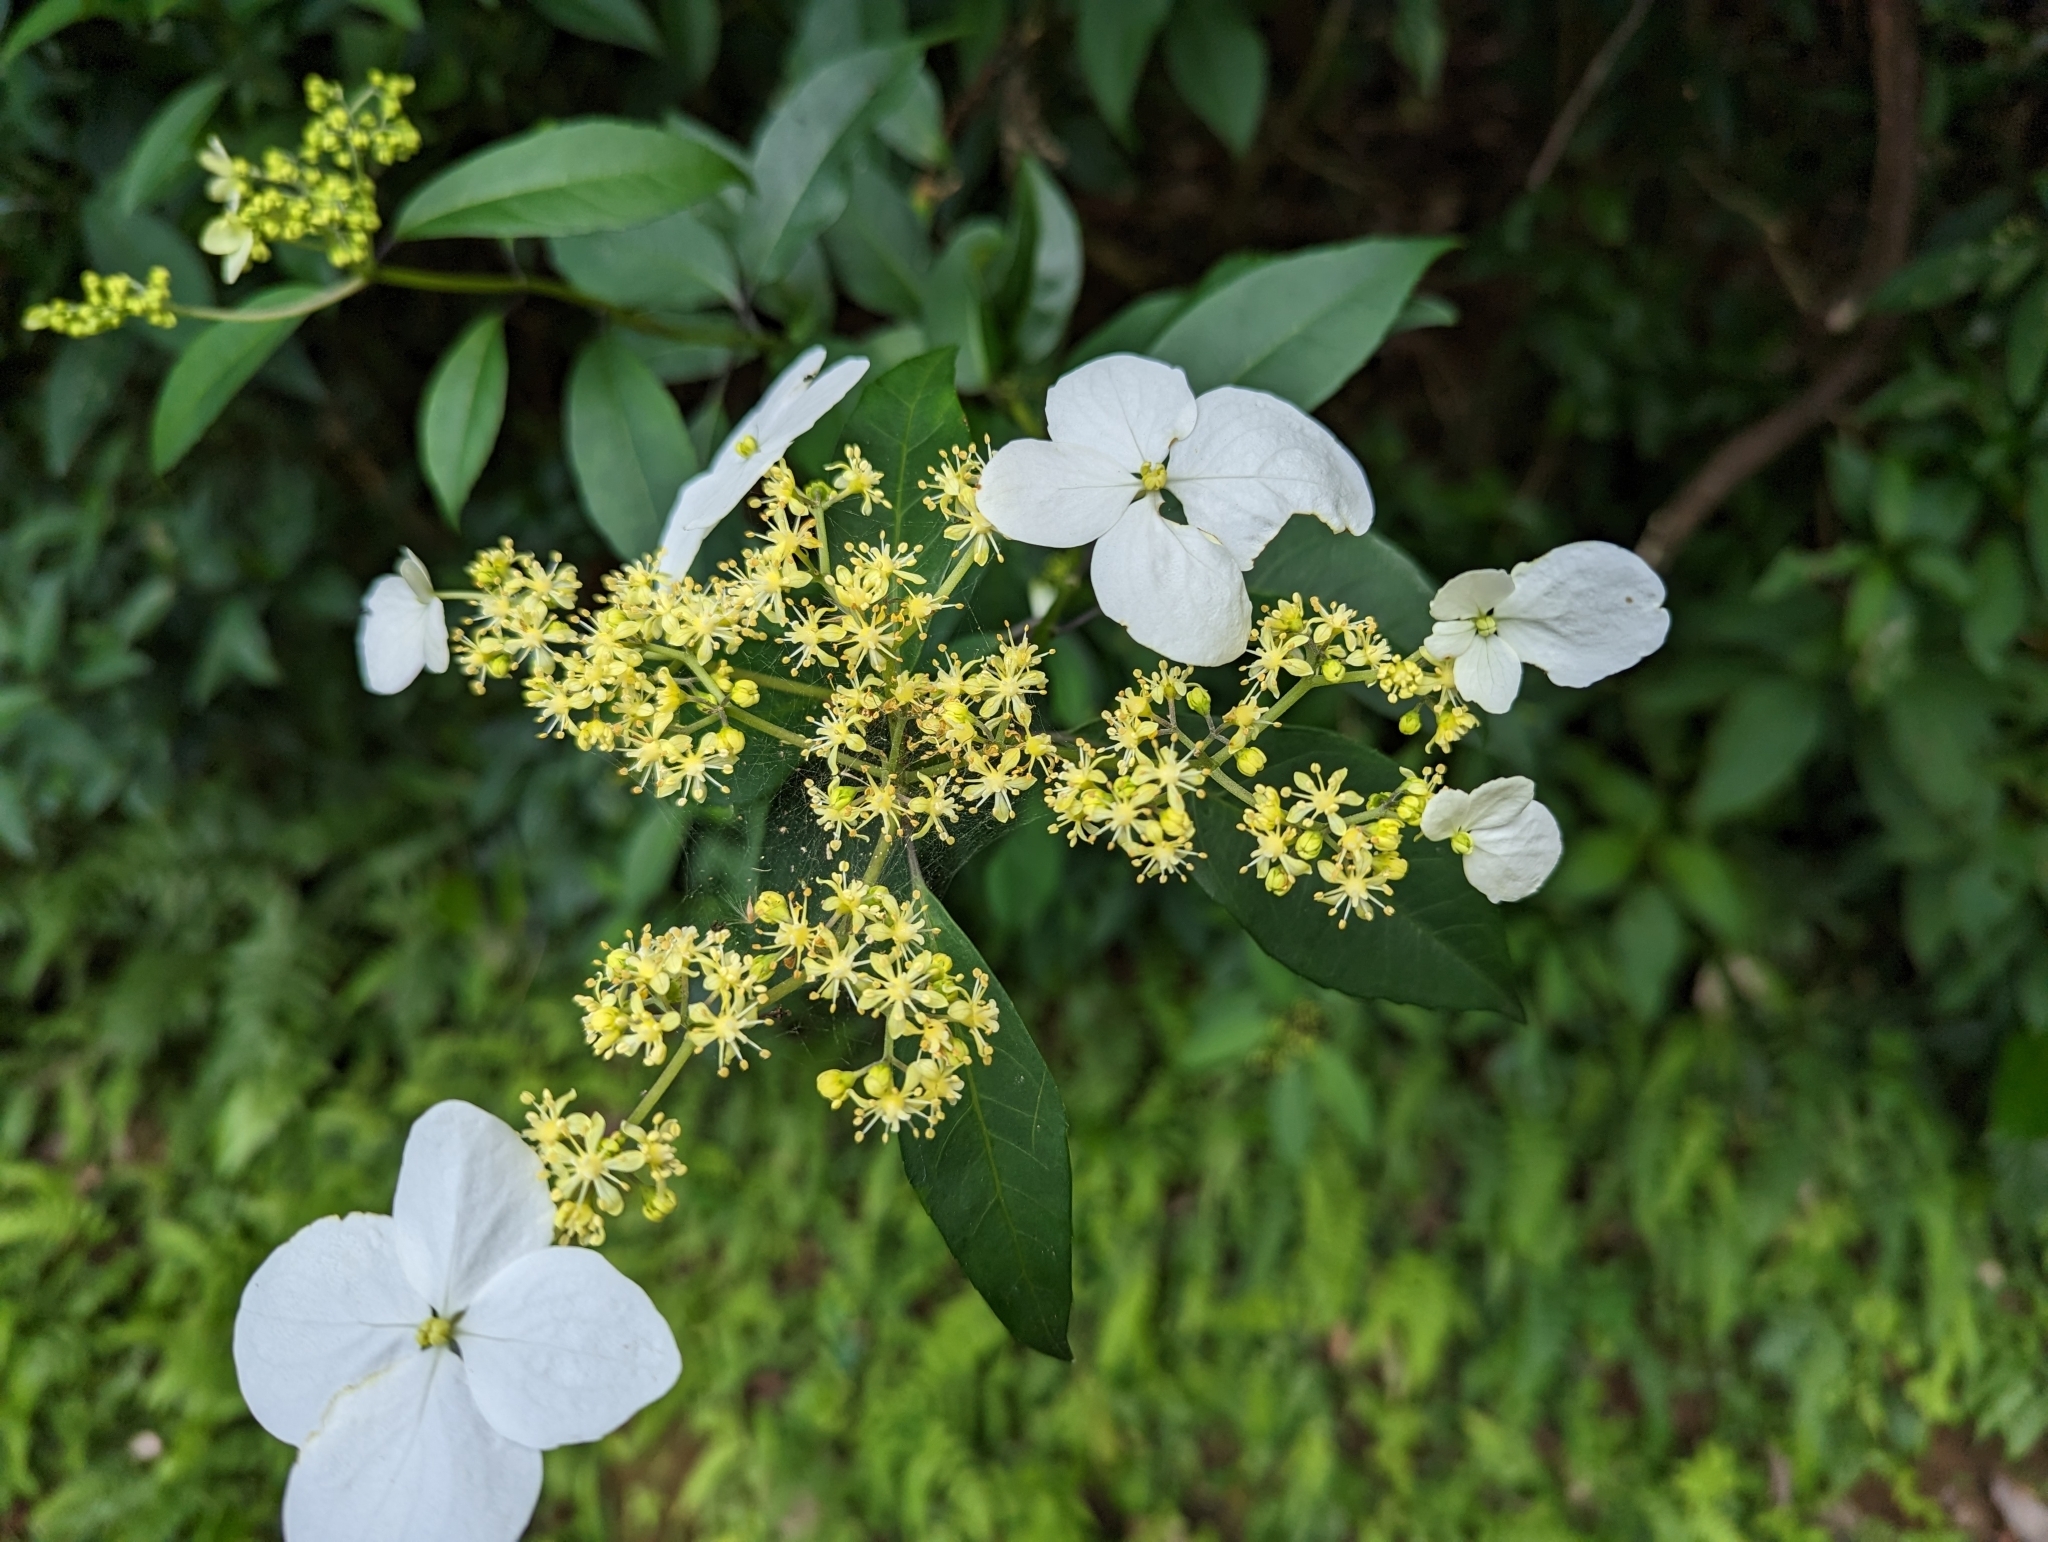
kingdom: Plantae
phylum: Tracheophyta
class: Magnoliopsida
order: Cornales
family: Hydrangeaceae
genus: Hydrangea
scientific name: Hydrangea chinensis
